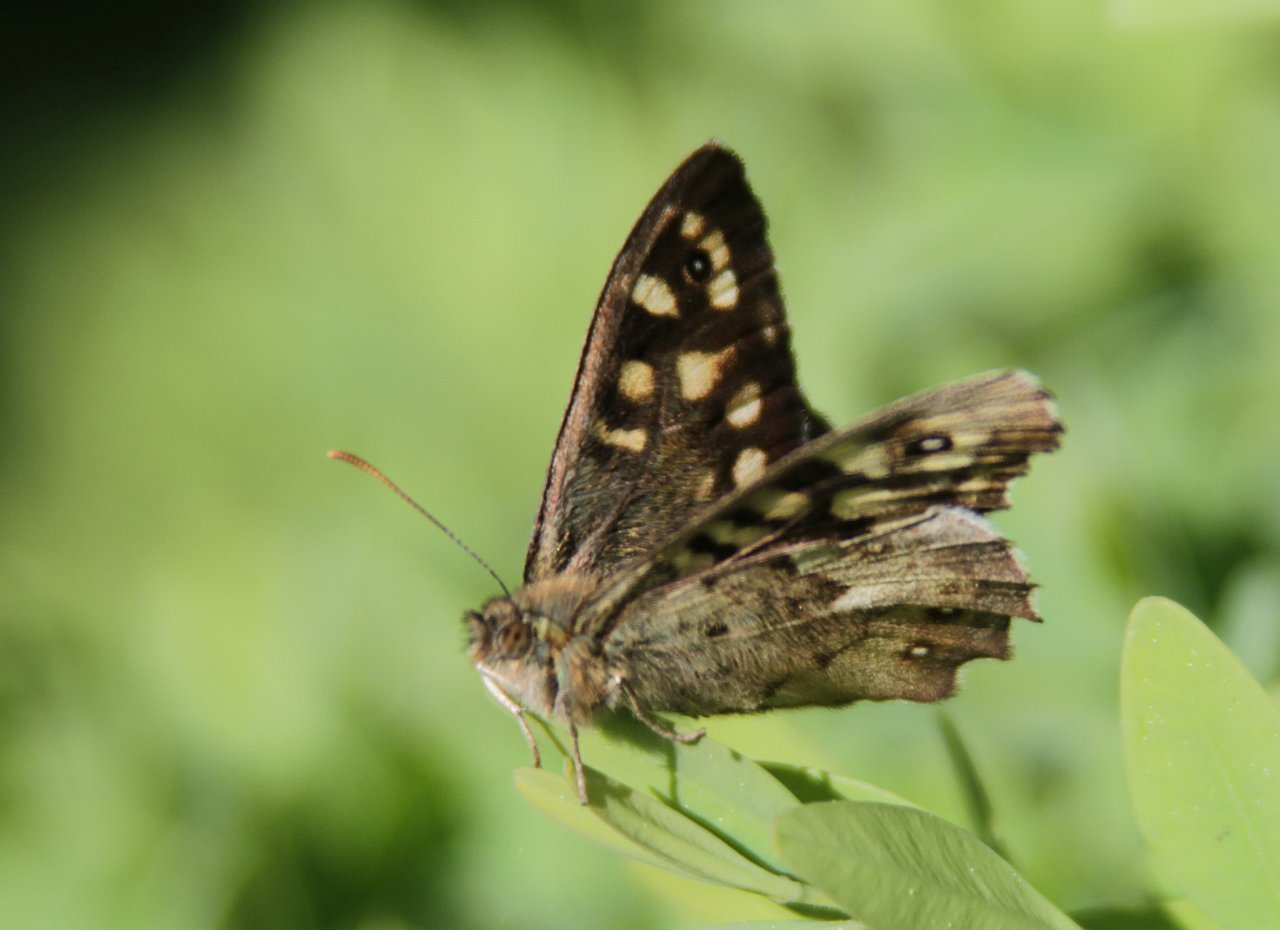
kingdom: Animalia
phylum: Arthropoda
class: Insecta
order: Lepidoptera
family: Nymphalidae
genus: Pararge
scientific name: Pararge aegeria
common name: Speckled wood
